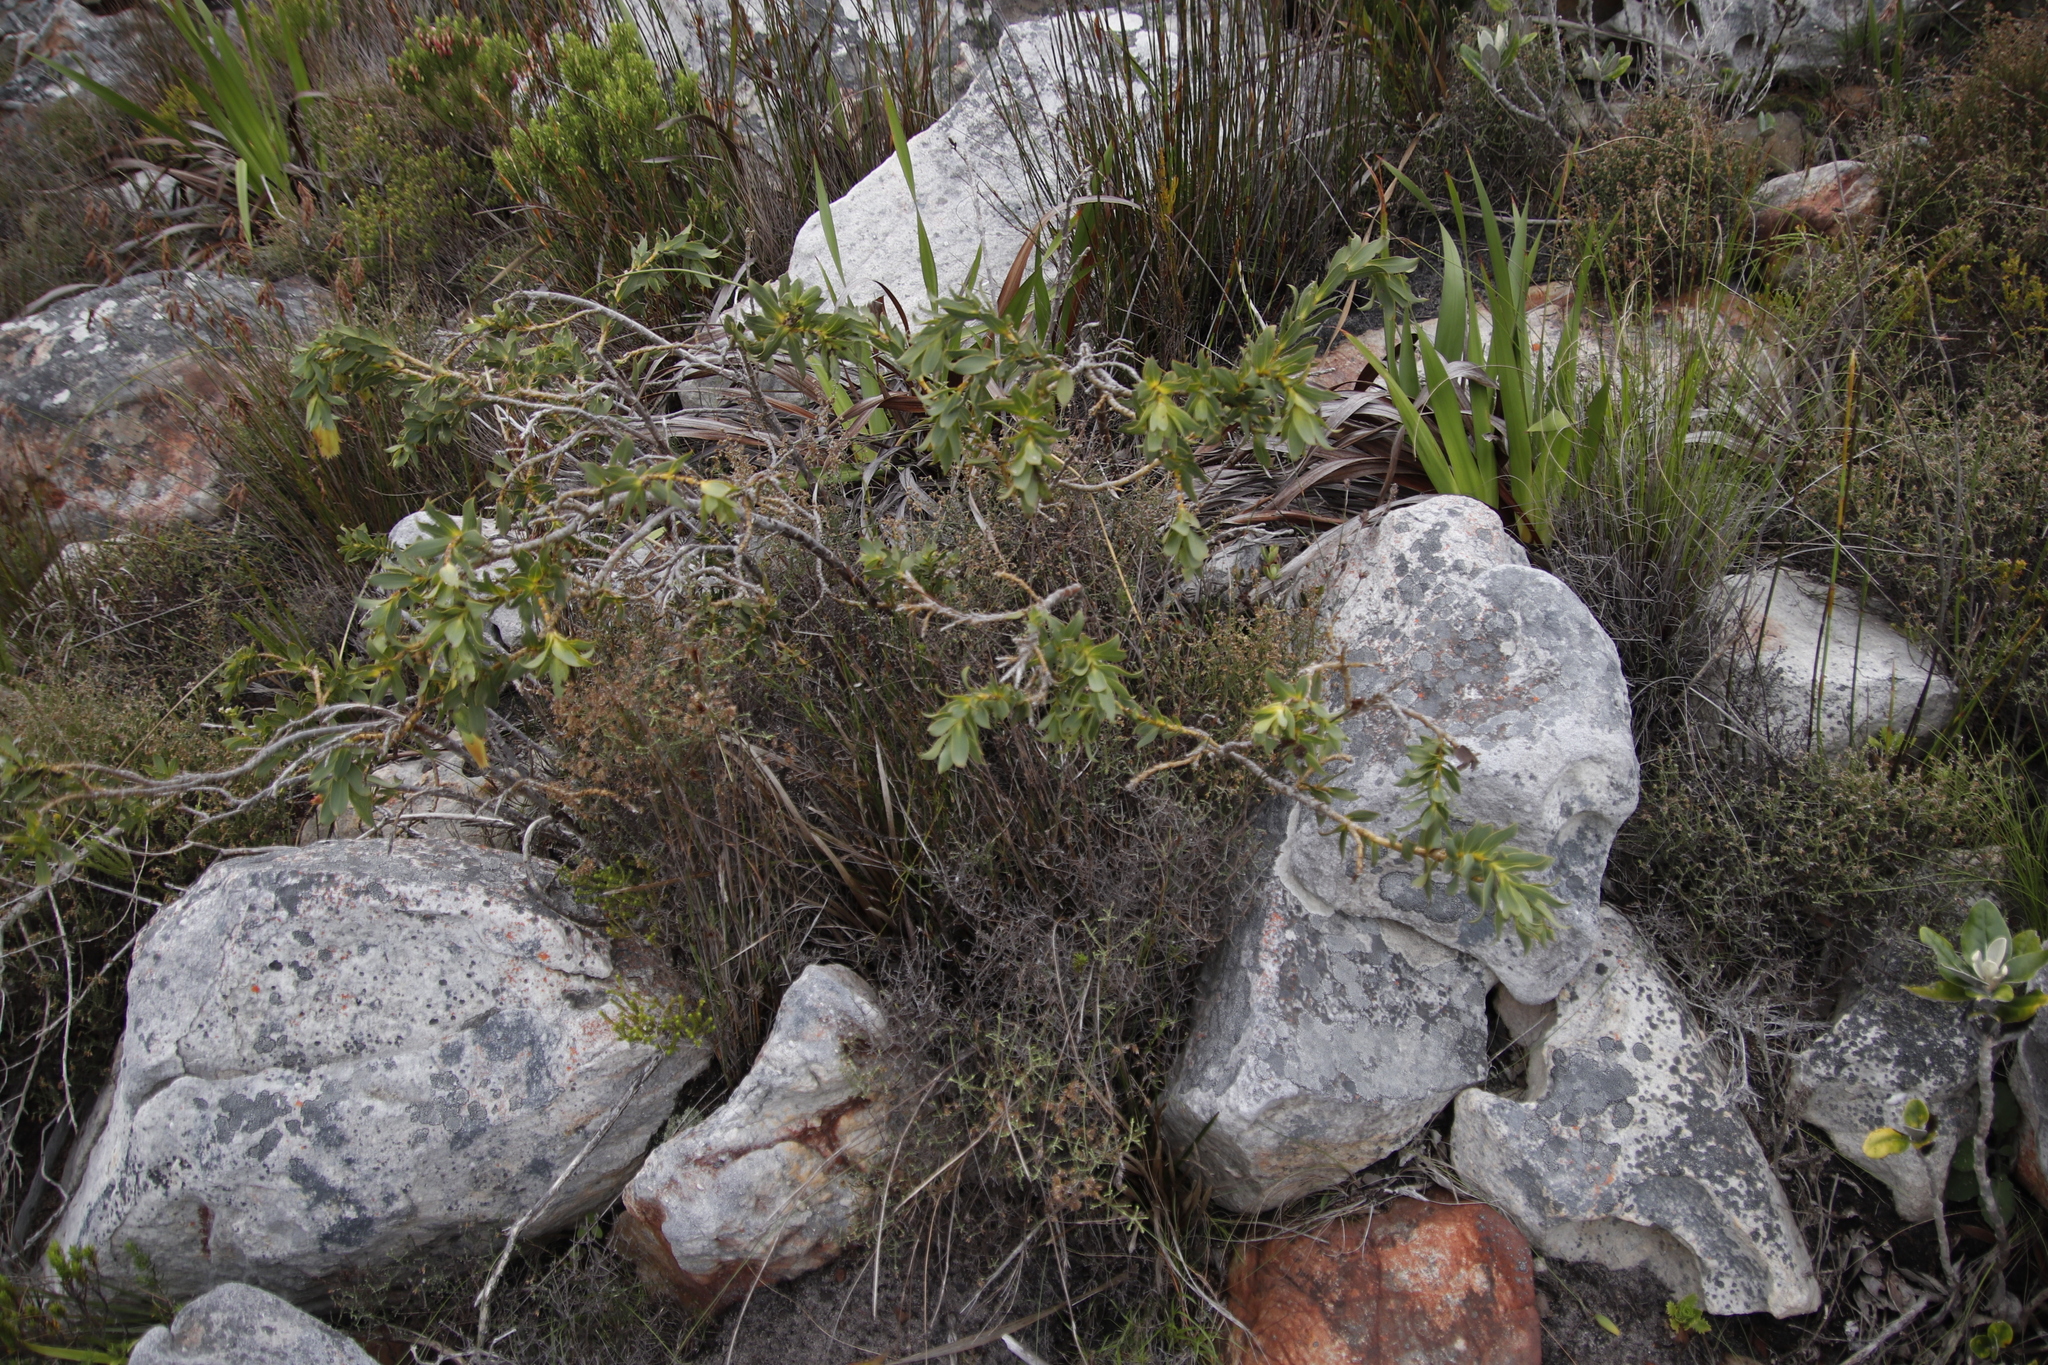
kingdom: Plantae
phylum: Tracheophyta
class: Magnoliopsida
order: Fabales
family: Fabaceae
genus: Liparia
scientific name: Liparia splendens
